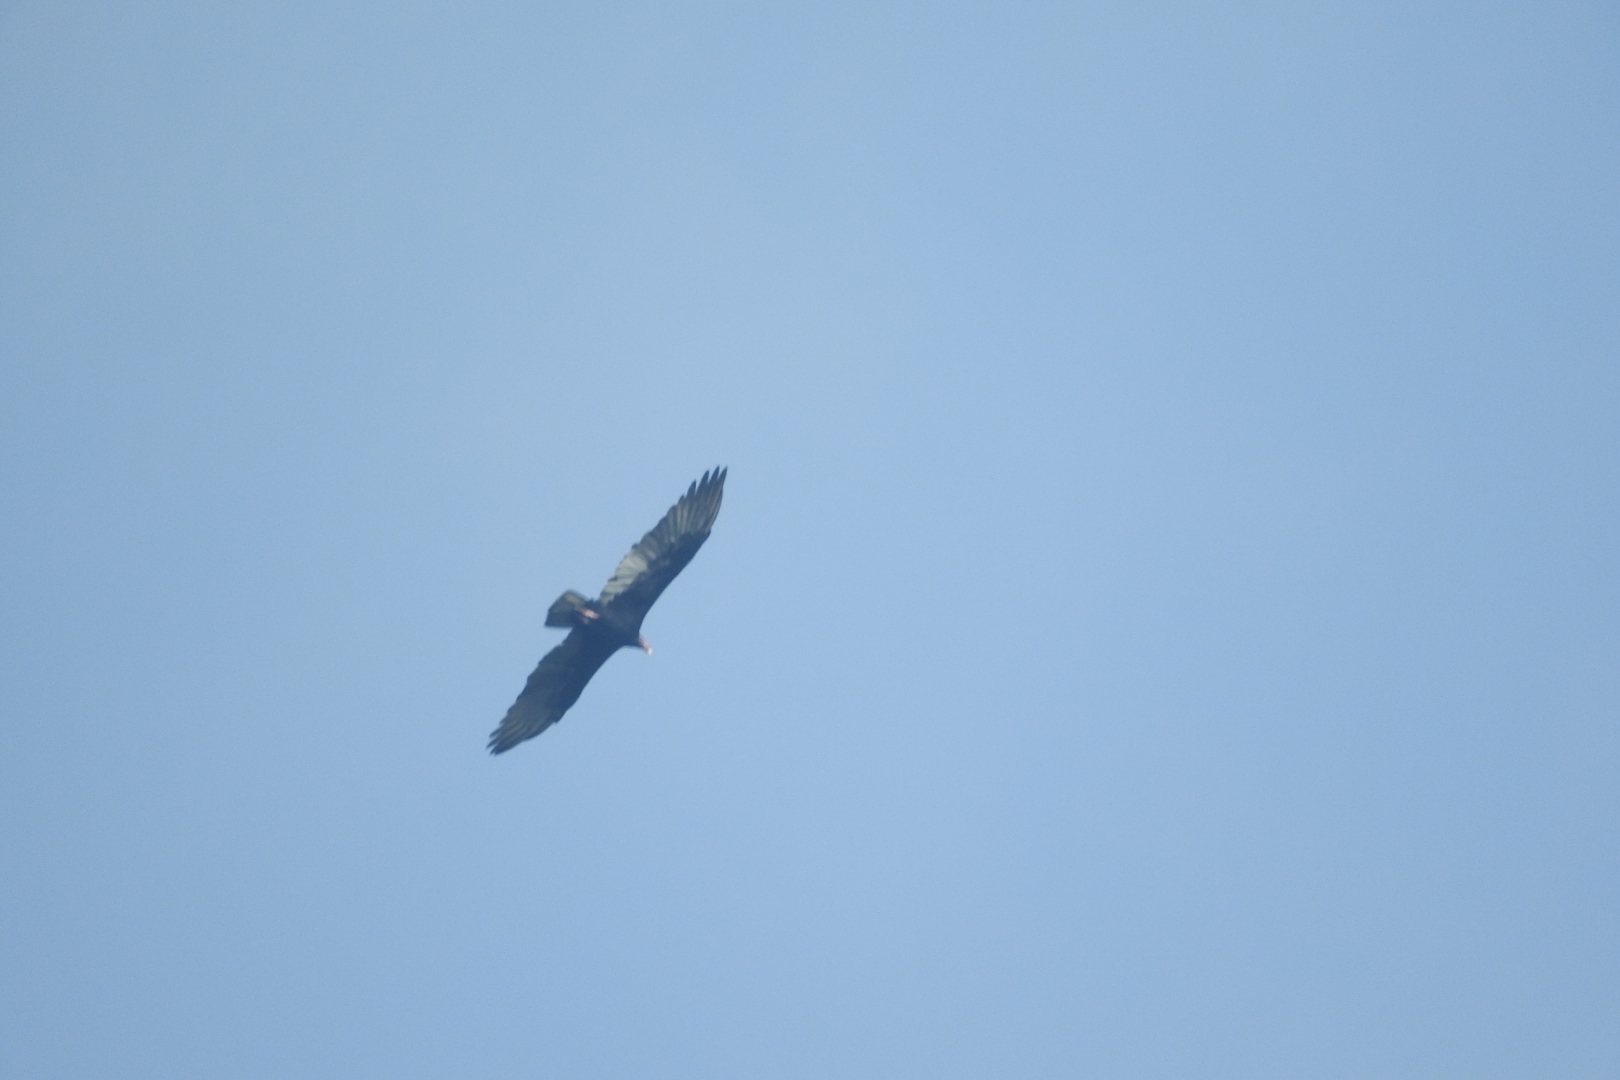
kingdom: Animalia
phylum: Chordata
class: Aves
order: Accipitriformes
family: Cathartidae
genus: Cathartes
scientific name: Cathartes aura
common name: Turkey vulture
